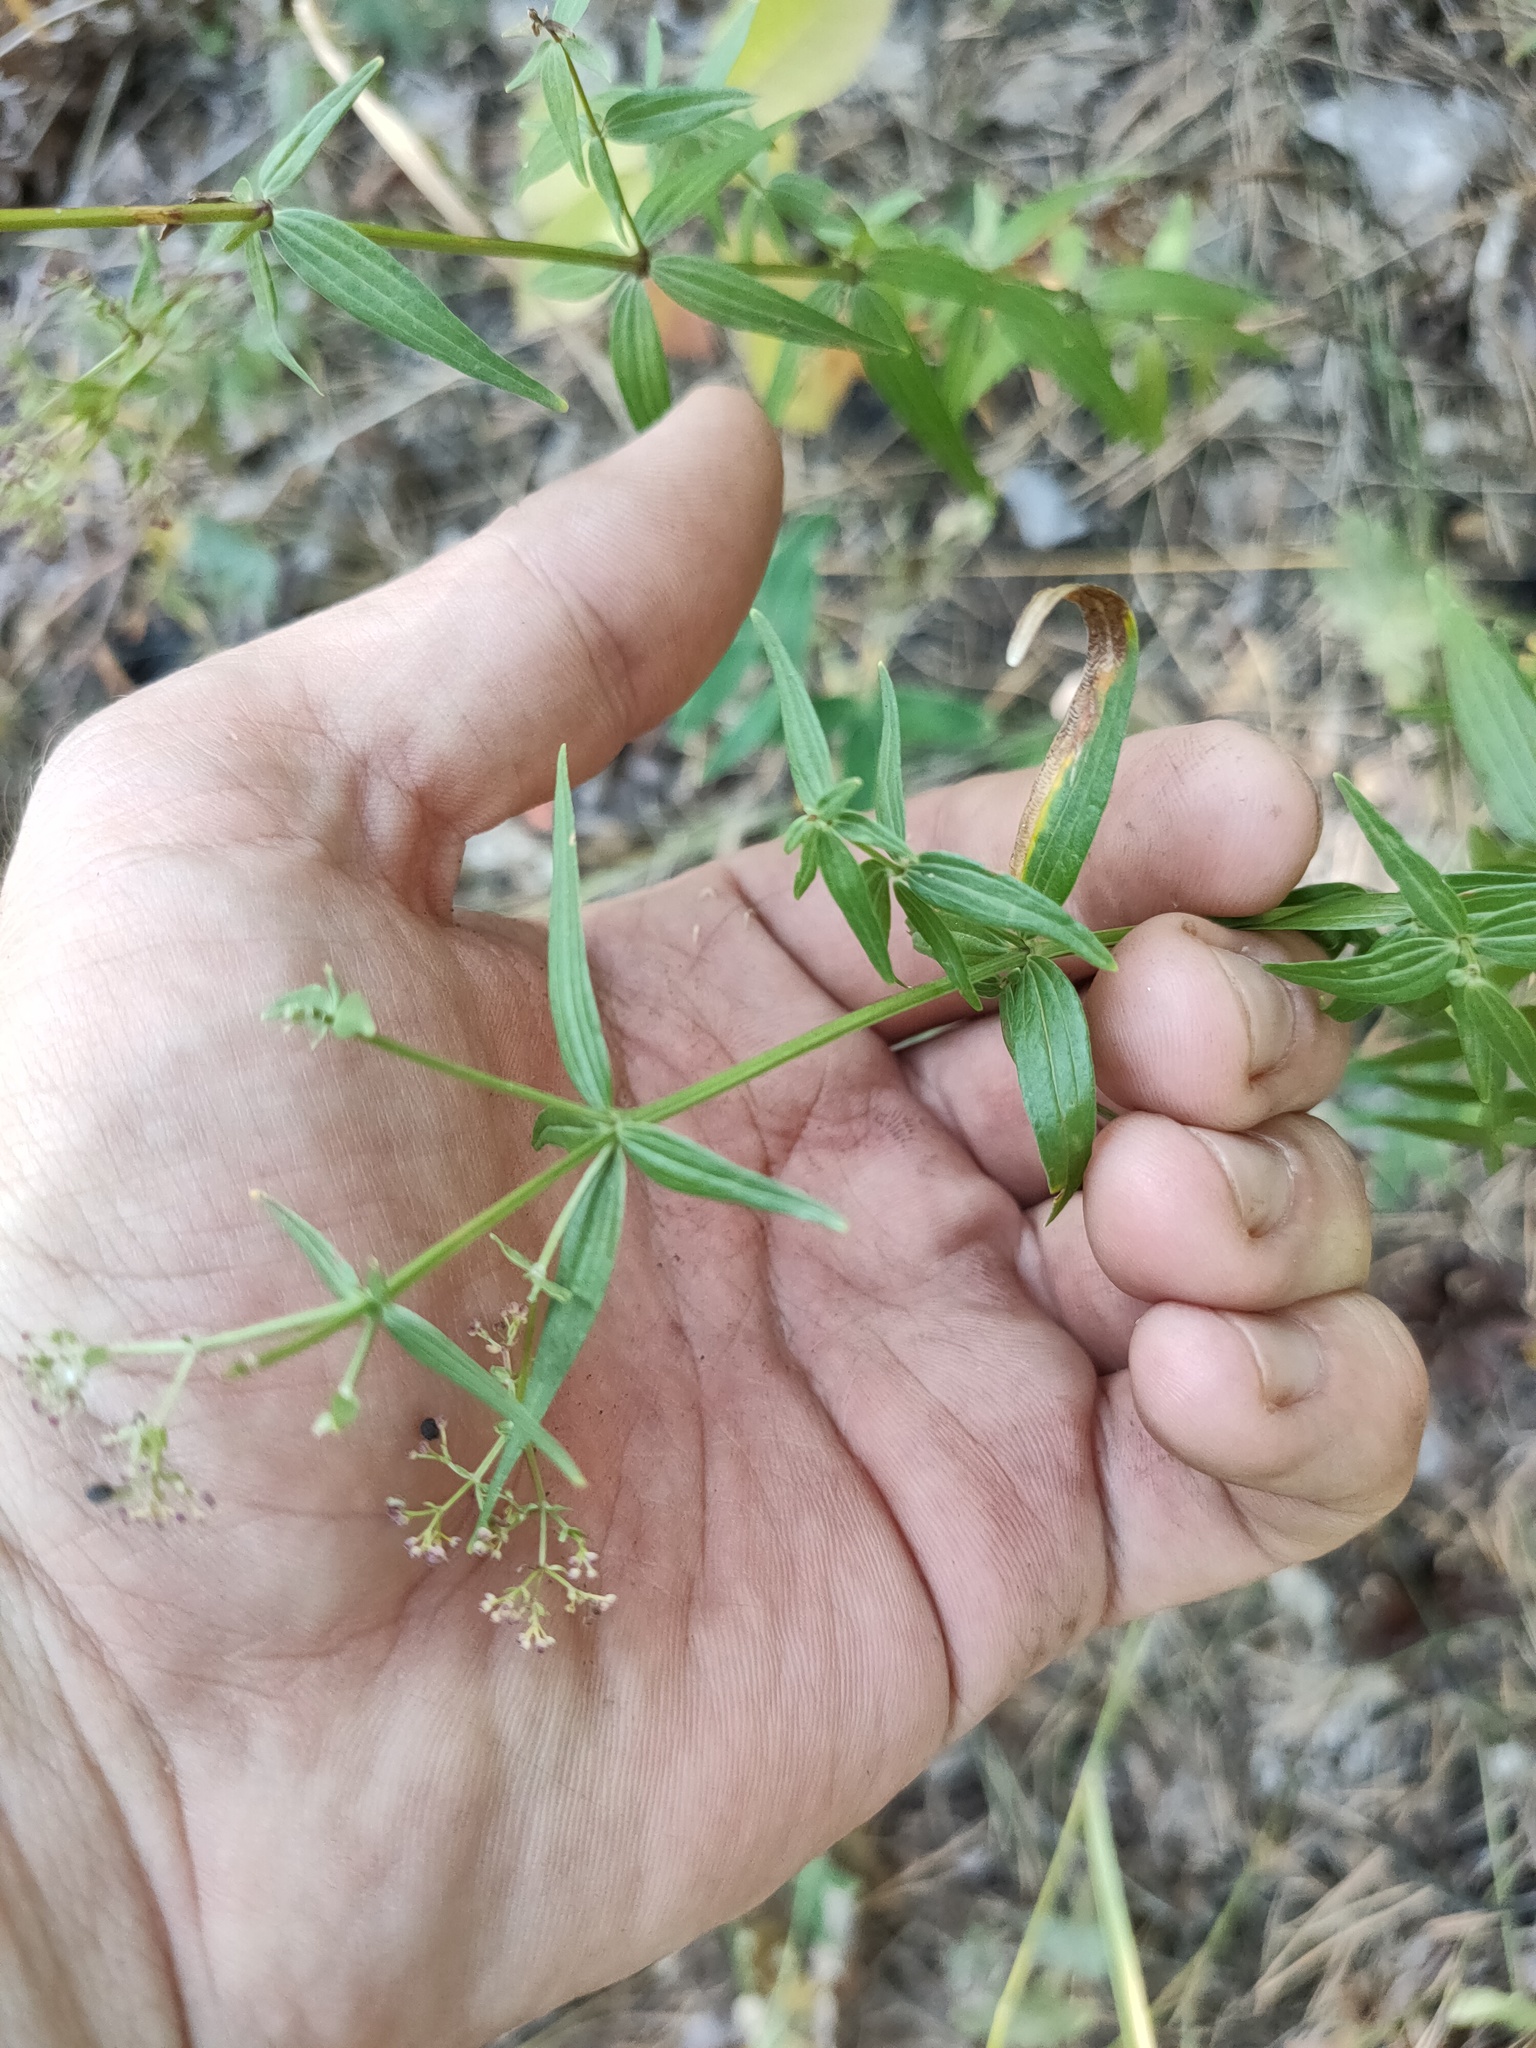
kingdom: Plantae
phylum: Tracheophyta
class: Magnoliopsida
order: Gentianales
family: Rubiaceae
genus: Galium
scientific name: Galium boreale
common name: Northern bedstraw
